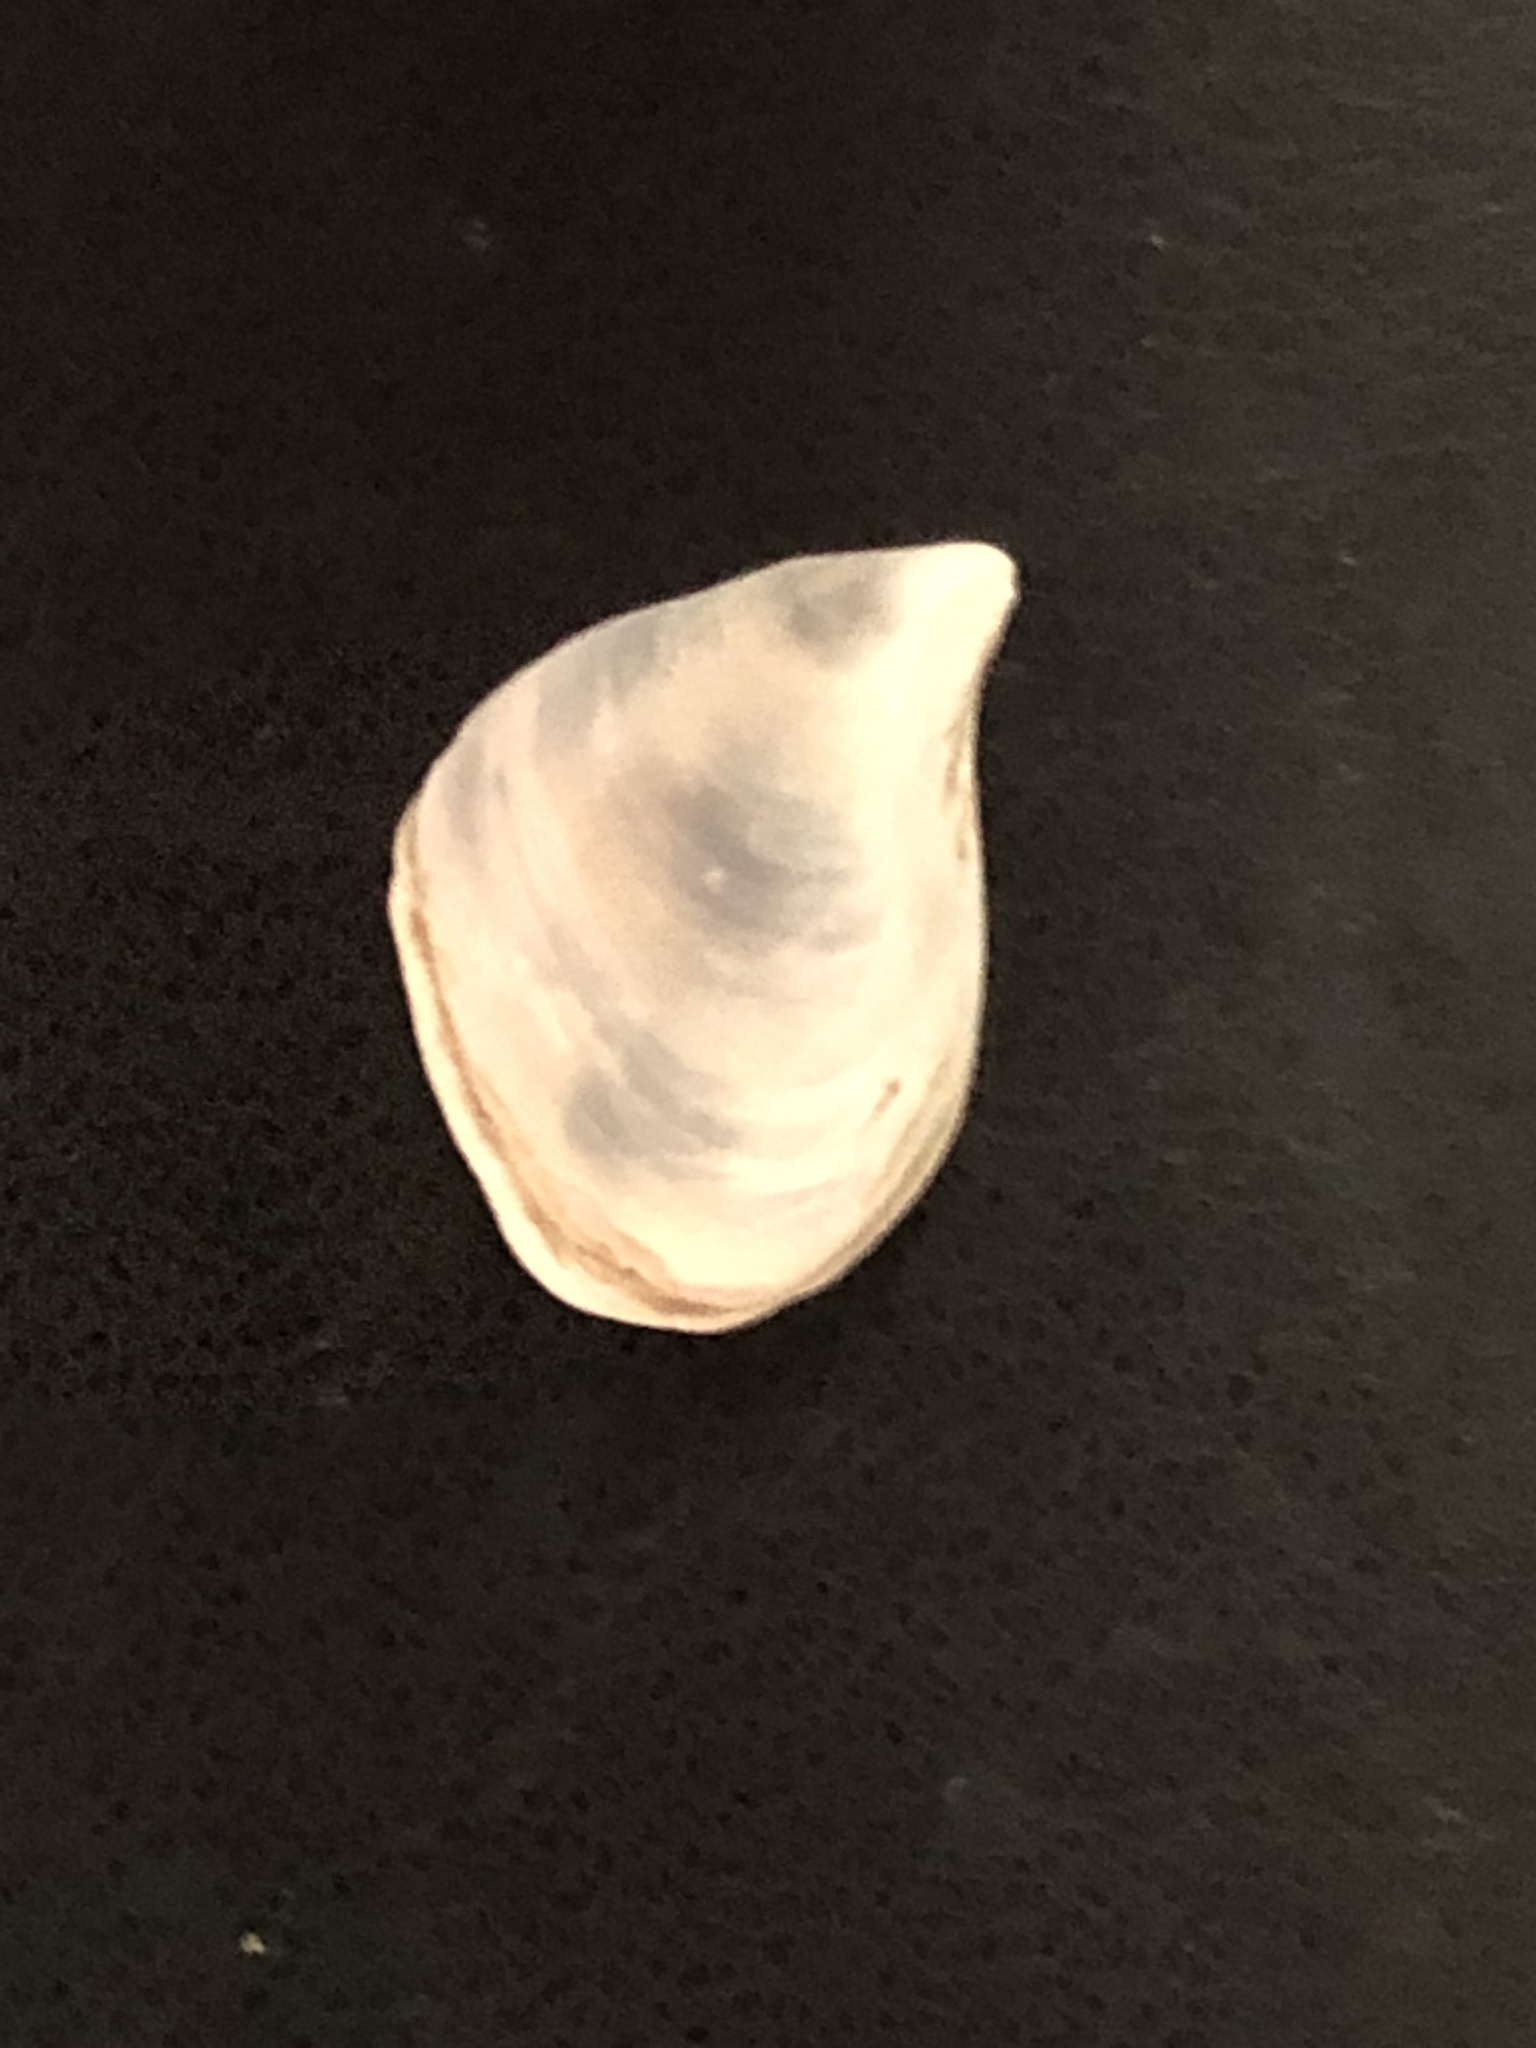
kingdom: Animalia
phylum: Mollusca
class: Bivalvia
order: Myida
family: Dreissenidae
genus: Dreissena
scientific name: Dreissena bugensis
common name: Quagga mussel
